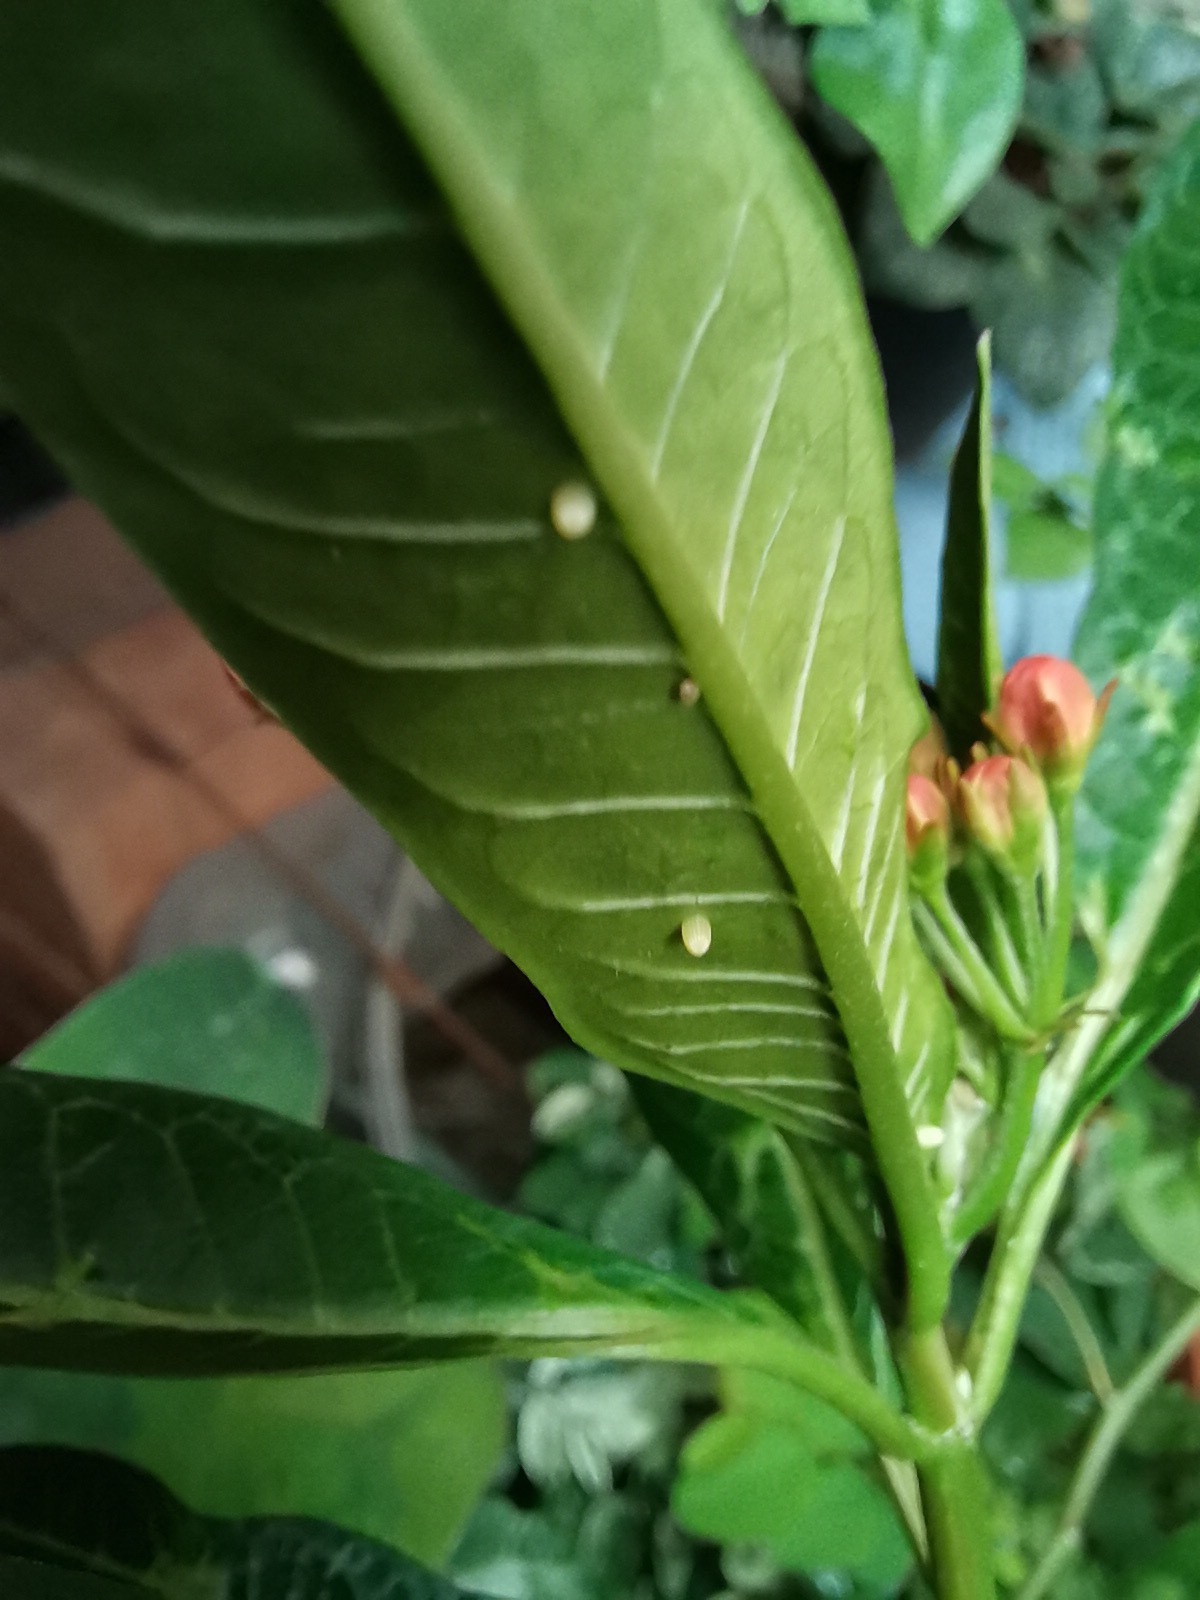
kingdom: Animalia
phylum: Arthropoda
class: Insecta
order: Lepidoptera
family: Nymphalidae
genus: Danaus
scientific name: Danaus plexippus
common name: Monarch
